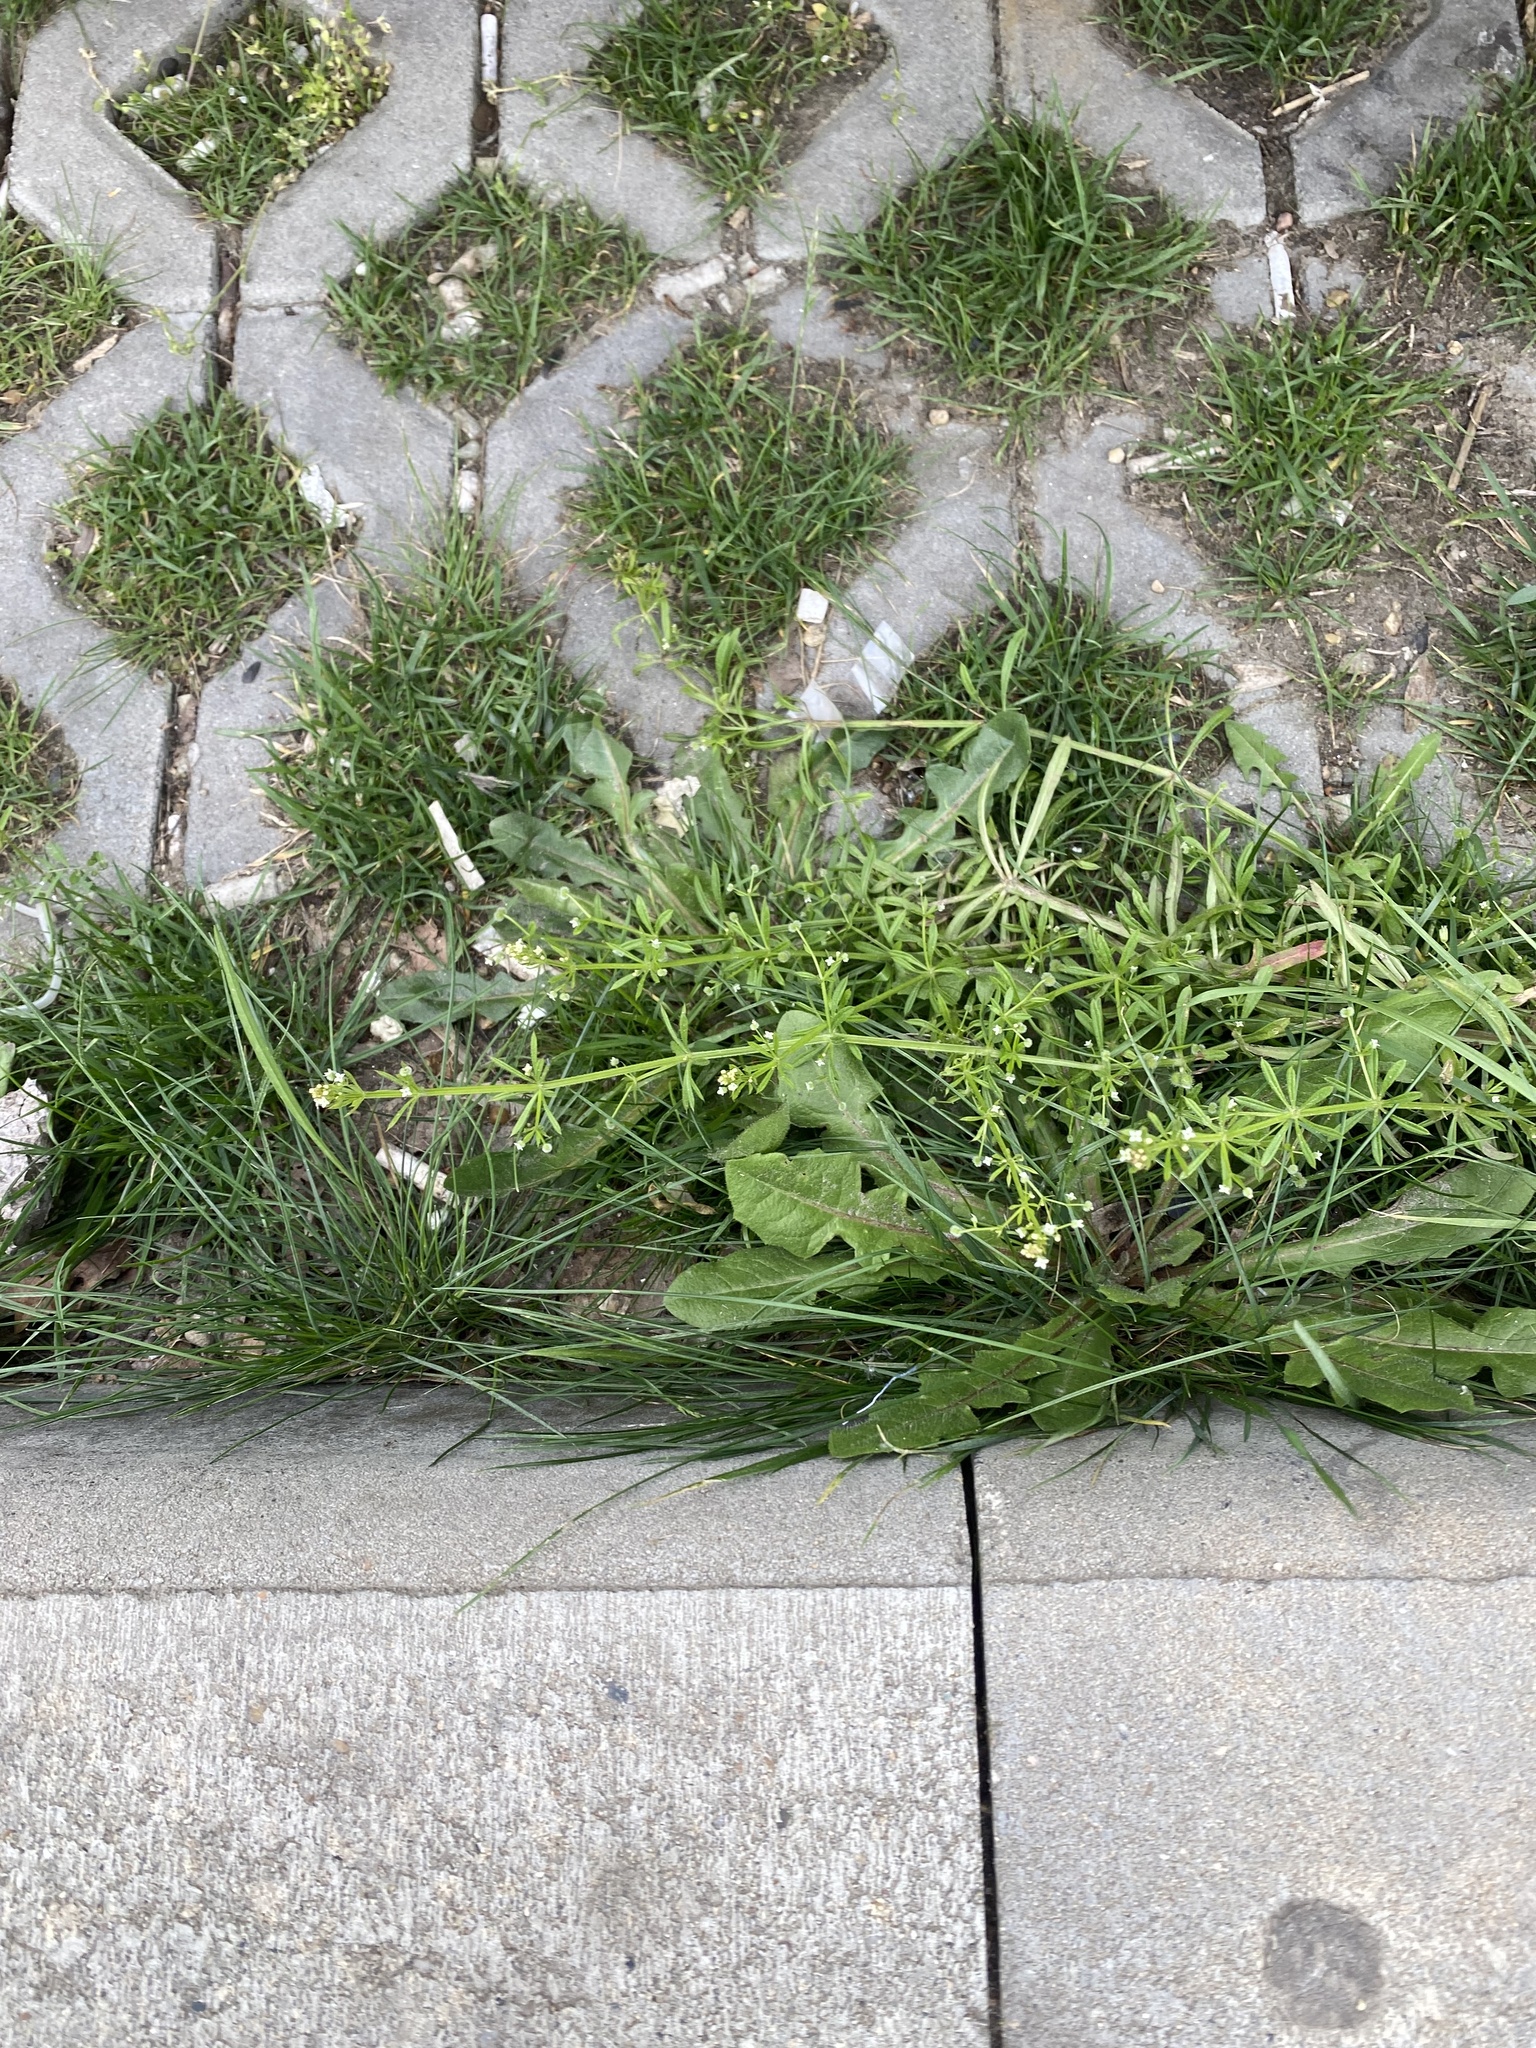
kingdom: Plantae
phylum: Tracheophyta
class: Magnoliopsida
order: Gentianales
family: Rubiaceae
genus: Galium
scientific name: Galium aparine
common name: Cleavers
